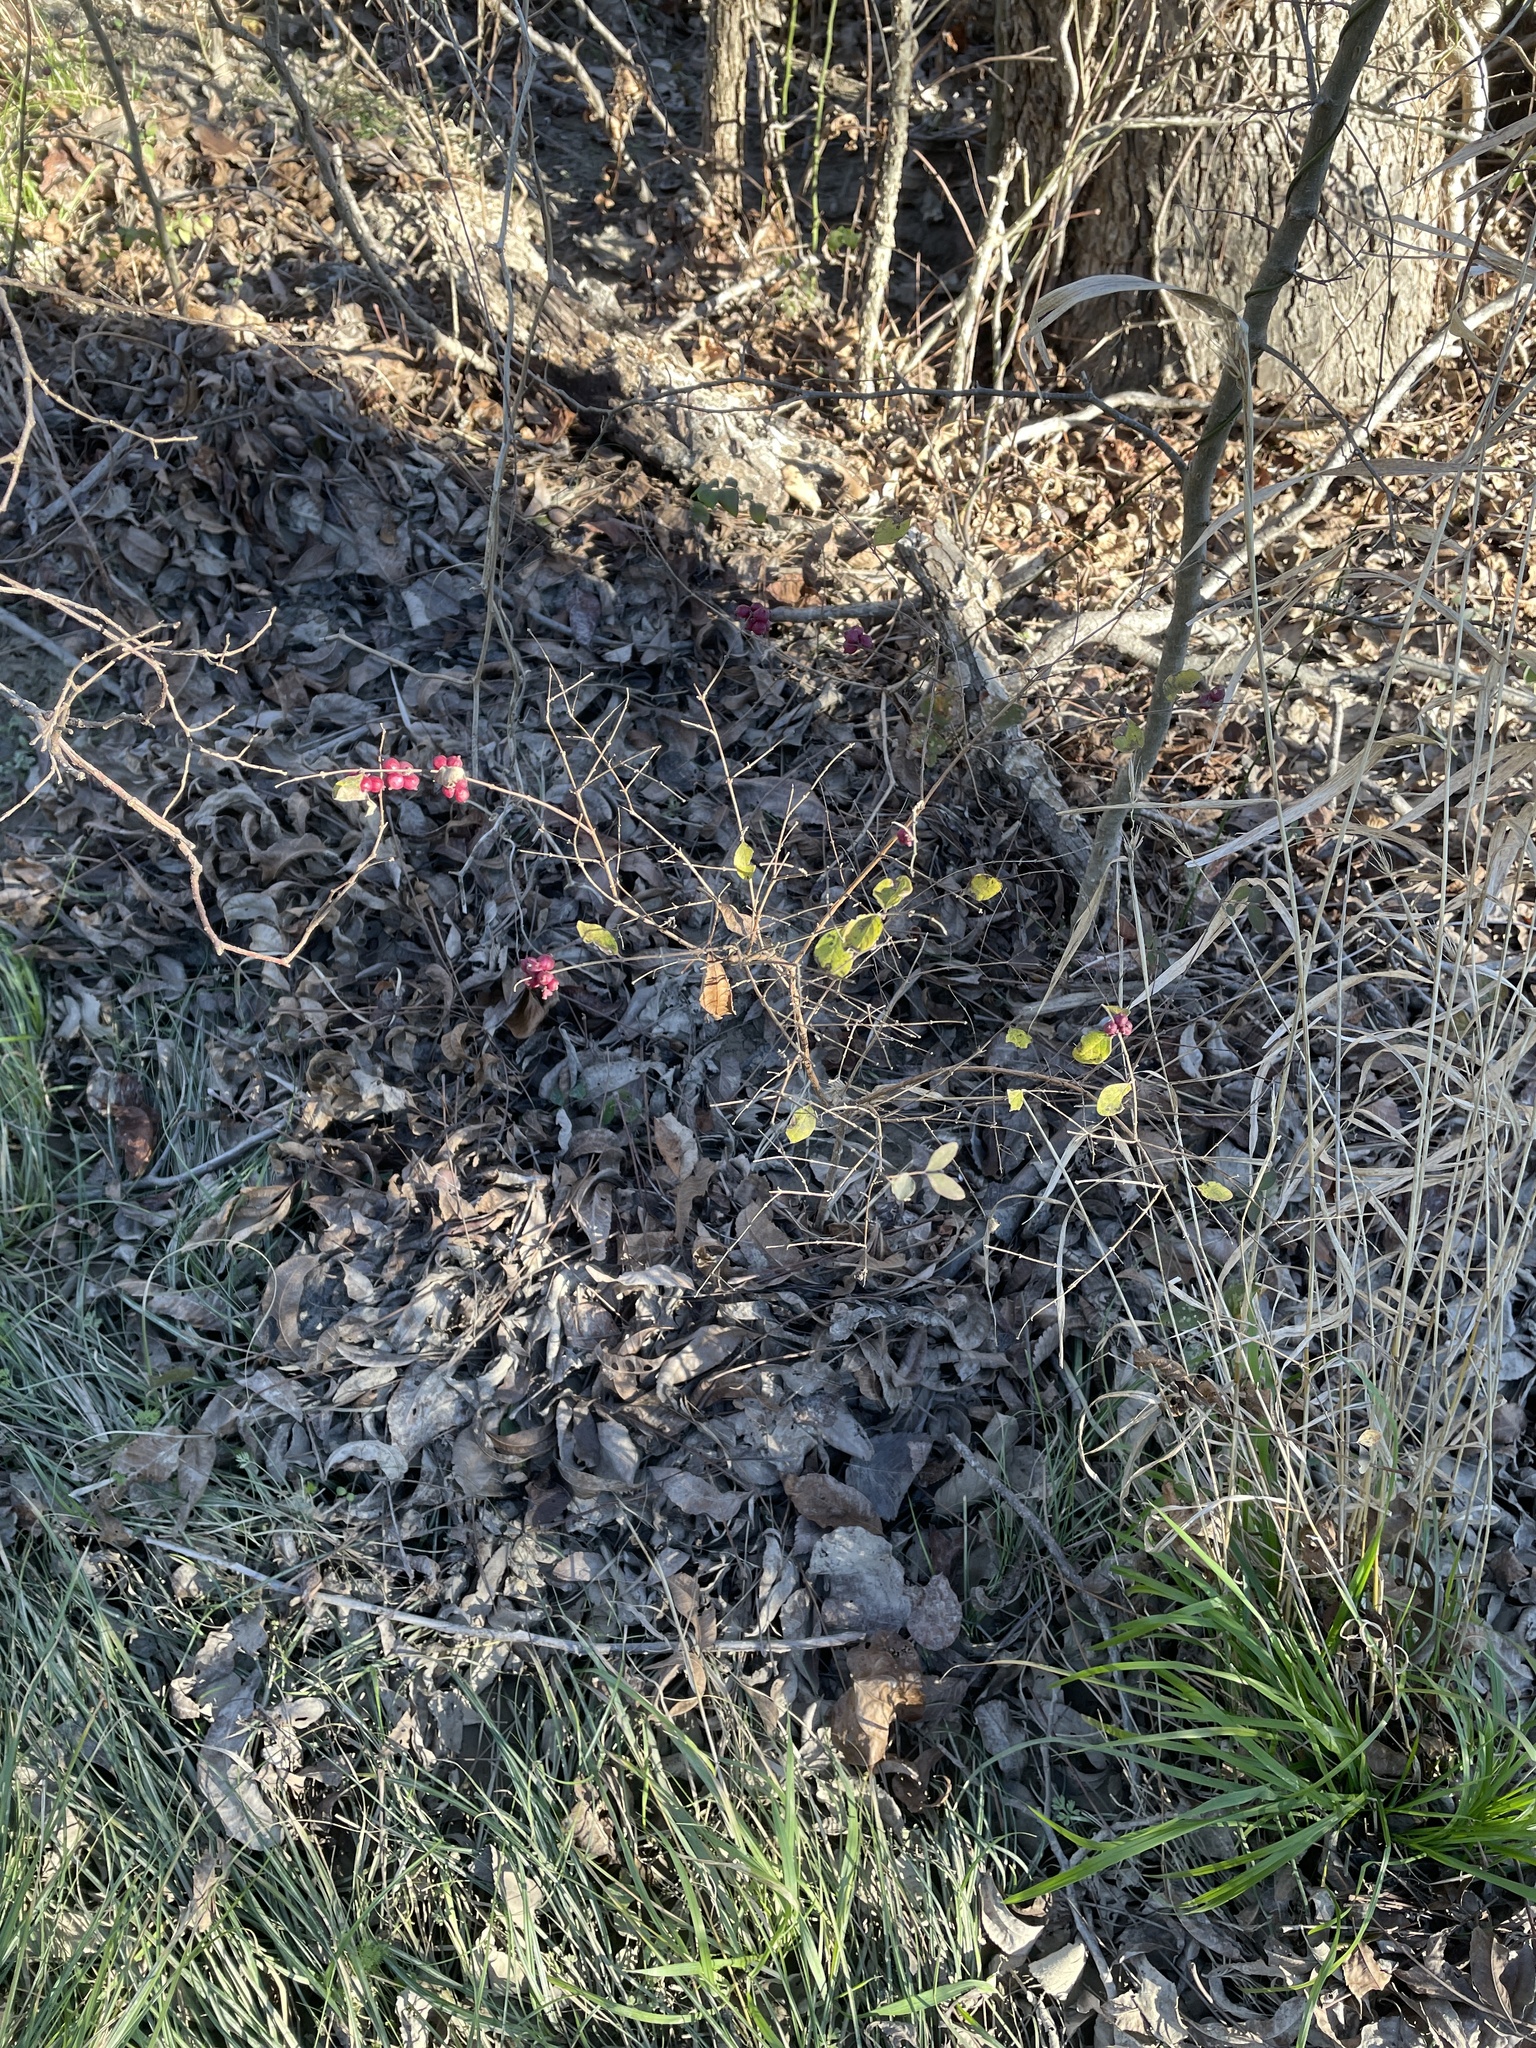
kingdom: Plantae
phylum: Tracheophyta
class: Magnoliopsida
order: Dipsacales
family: Caprifoliaceae
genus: Symphoricarpos
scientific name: Symphoricarpos orbiculatus
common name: Coralberry
